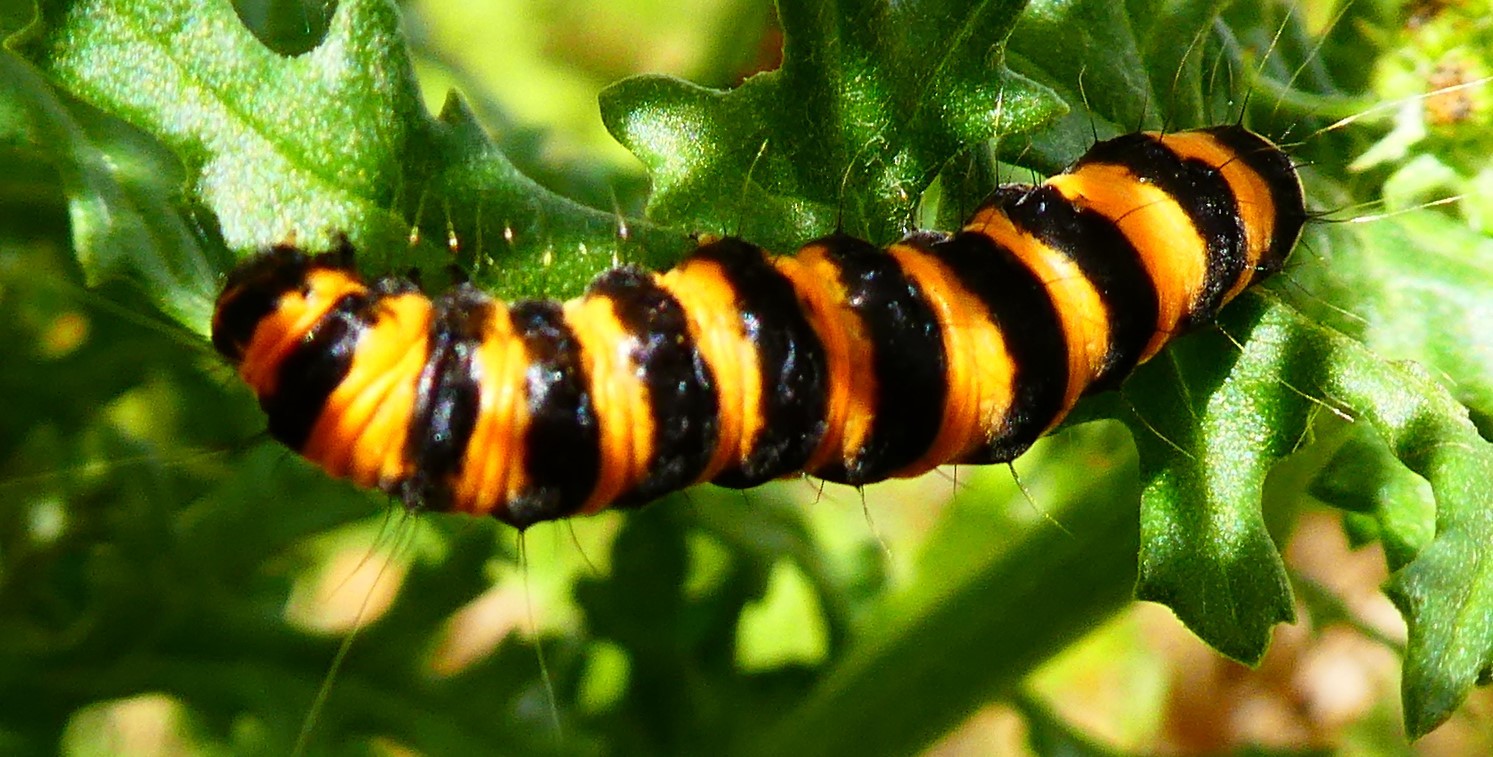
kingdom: Animalia
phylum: Arthropoda
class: Insecta
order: Lepidoptera
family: Erebidae
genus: Tyria
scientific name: Tyria jacobaeae
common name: Cinnabar
